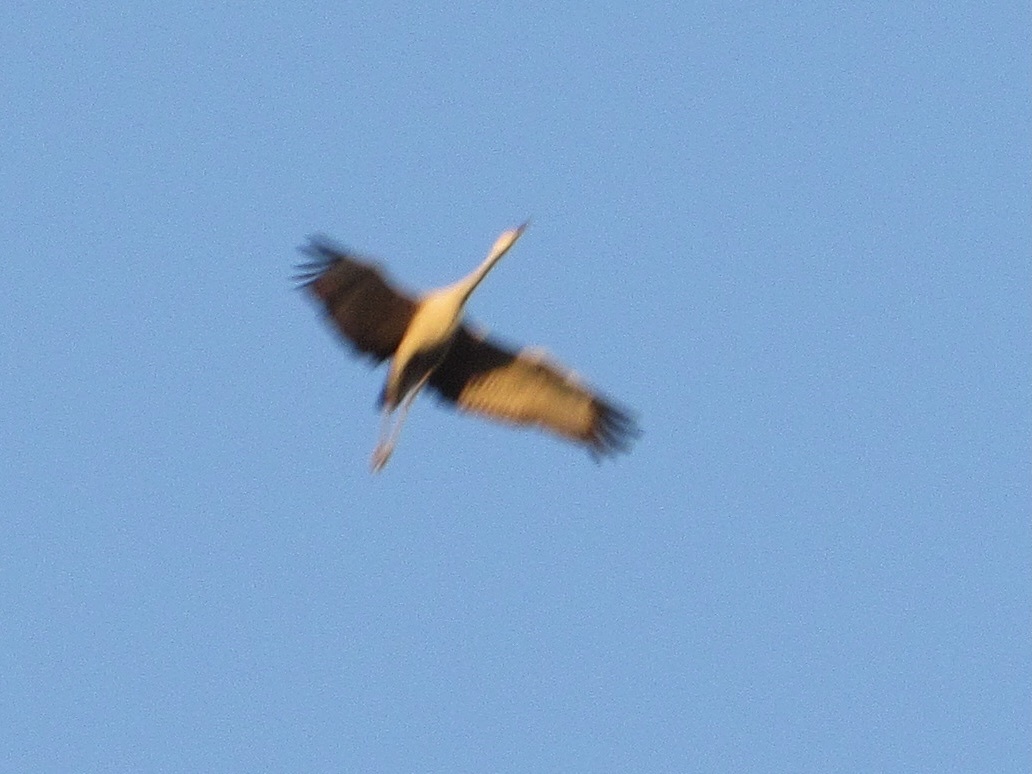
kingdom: Animalia
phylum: Chordata
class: Aves
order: Gruiformes
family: Gruidae
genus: Grus
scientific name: Grus canadensis
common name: Sandhill crane
